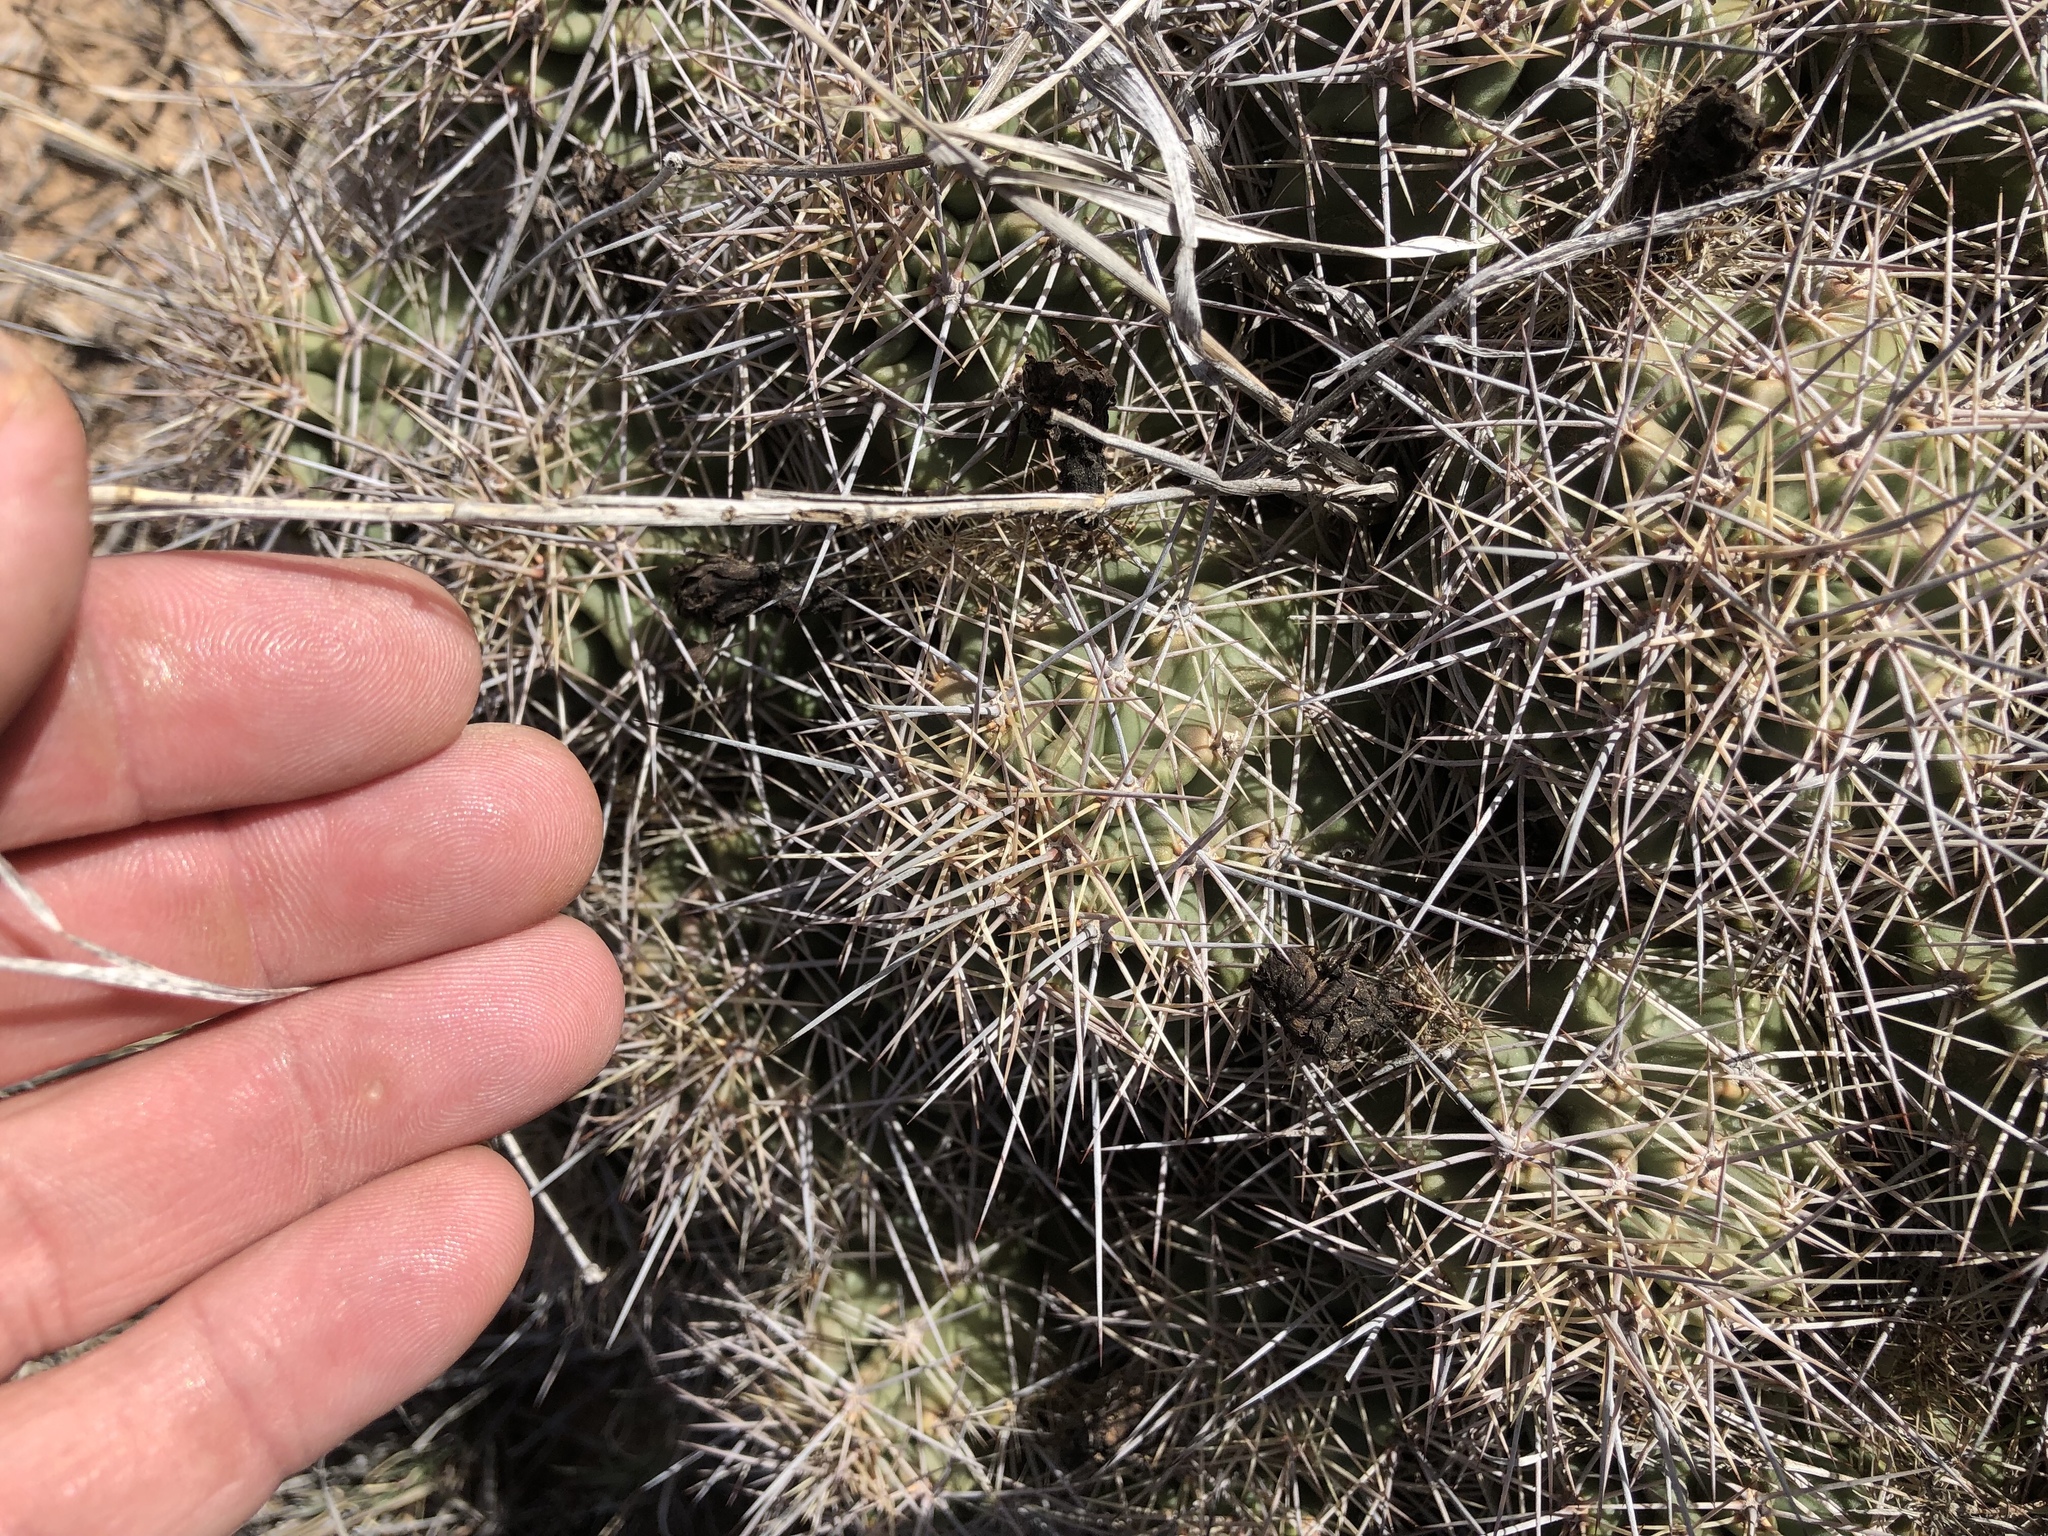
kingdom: Plantae
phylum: Tracheophyta
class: Magnoliopsida
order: Caryophyllales
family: Cactaceae
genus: Echinocereus
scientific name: Echinocereus coccineus
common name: Scarlet hedgehog cactus
